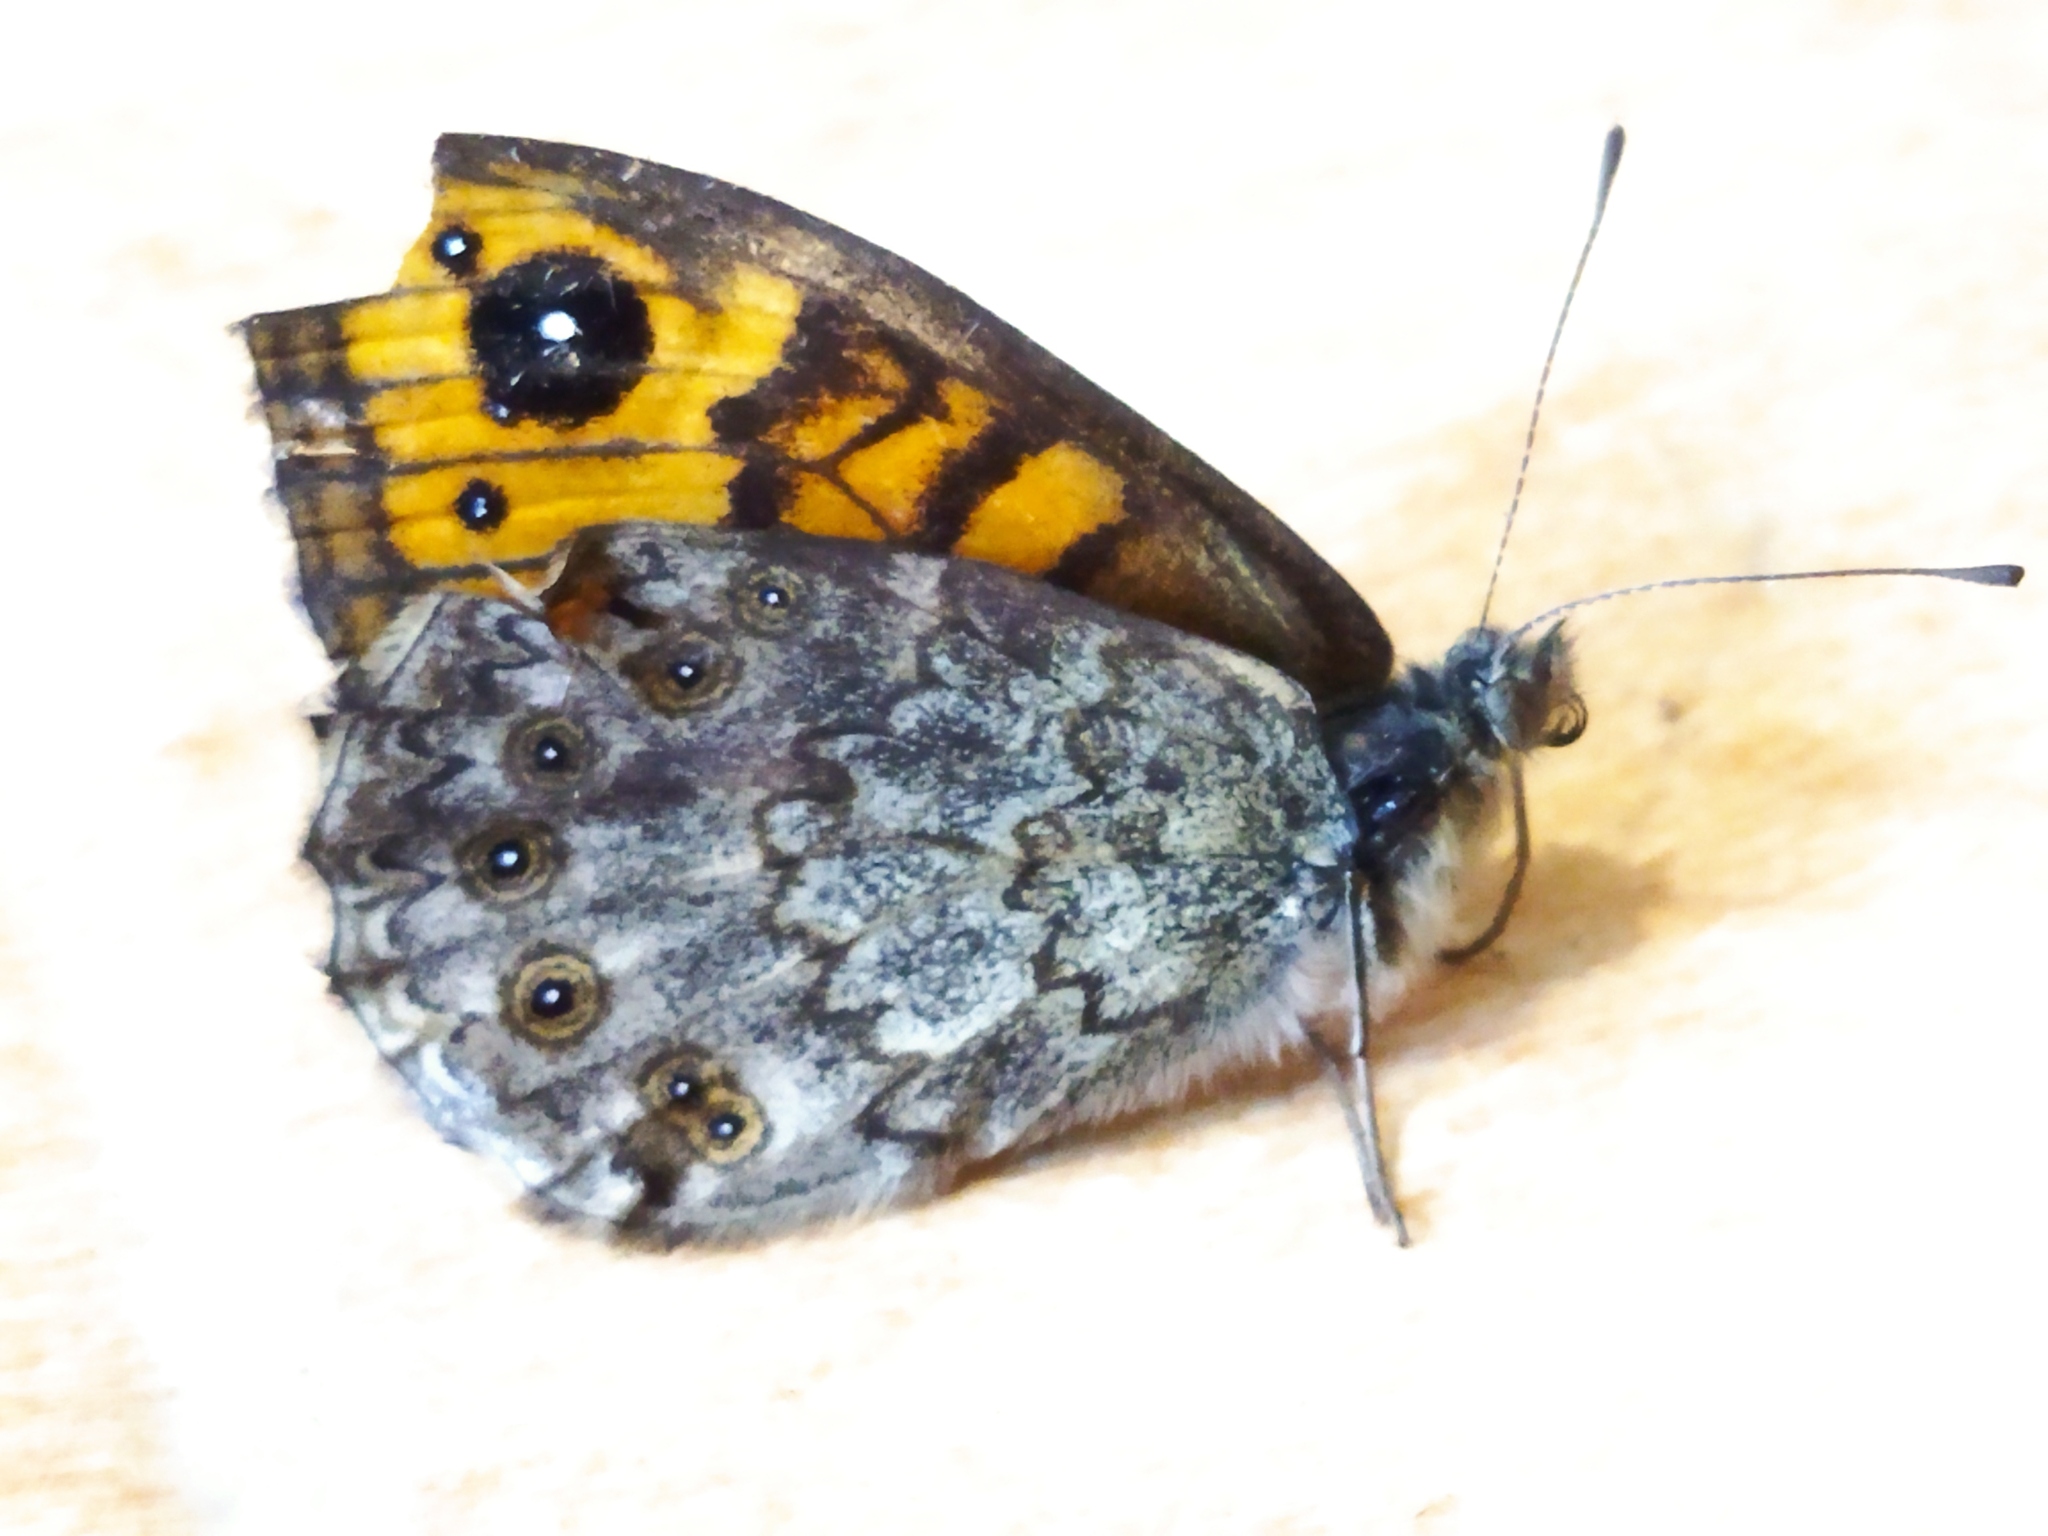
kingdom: Animalia
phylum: Arthropoda
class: Insecta
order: Lepidoptera
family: Nymphalidae
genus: Pararge
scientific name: Pararge Lasiommata megera
